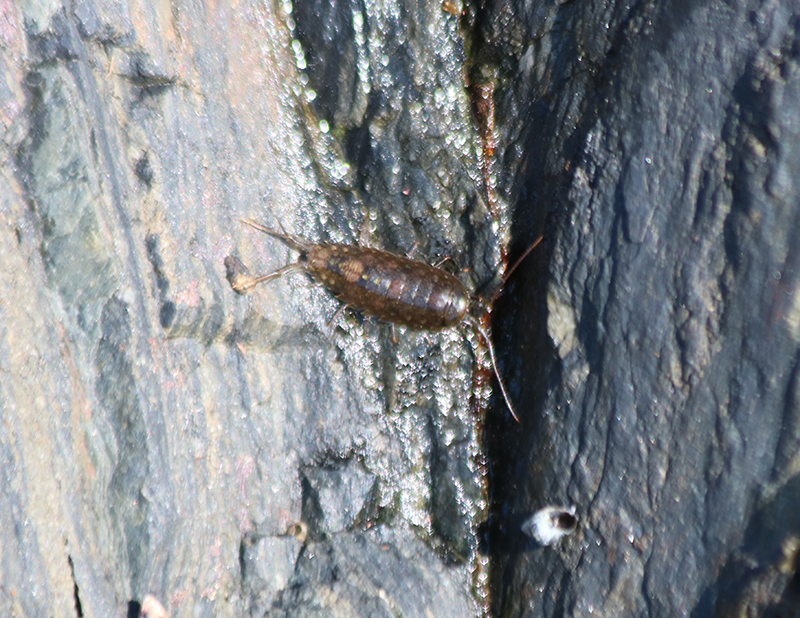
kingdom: Animalia
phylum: Arthropoda
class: Malacostraca
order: Isopoda
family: Ligiidae
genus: Ligia
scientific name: Ligia occidentalis
